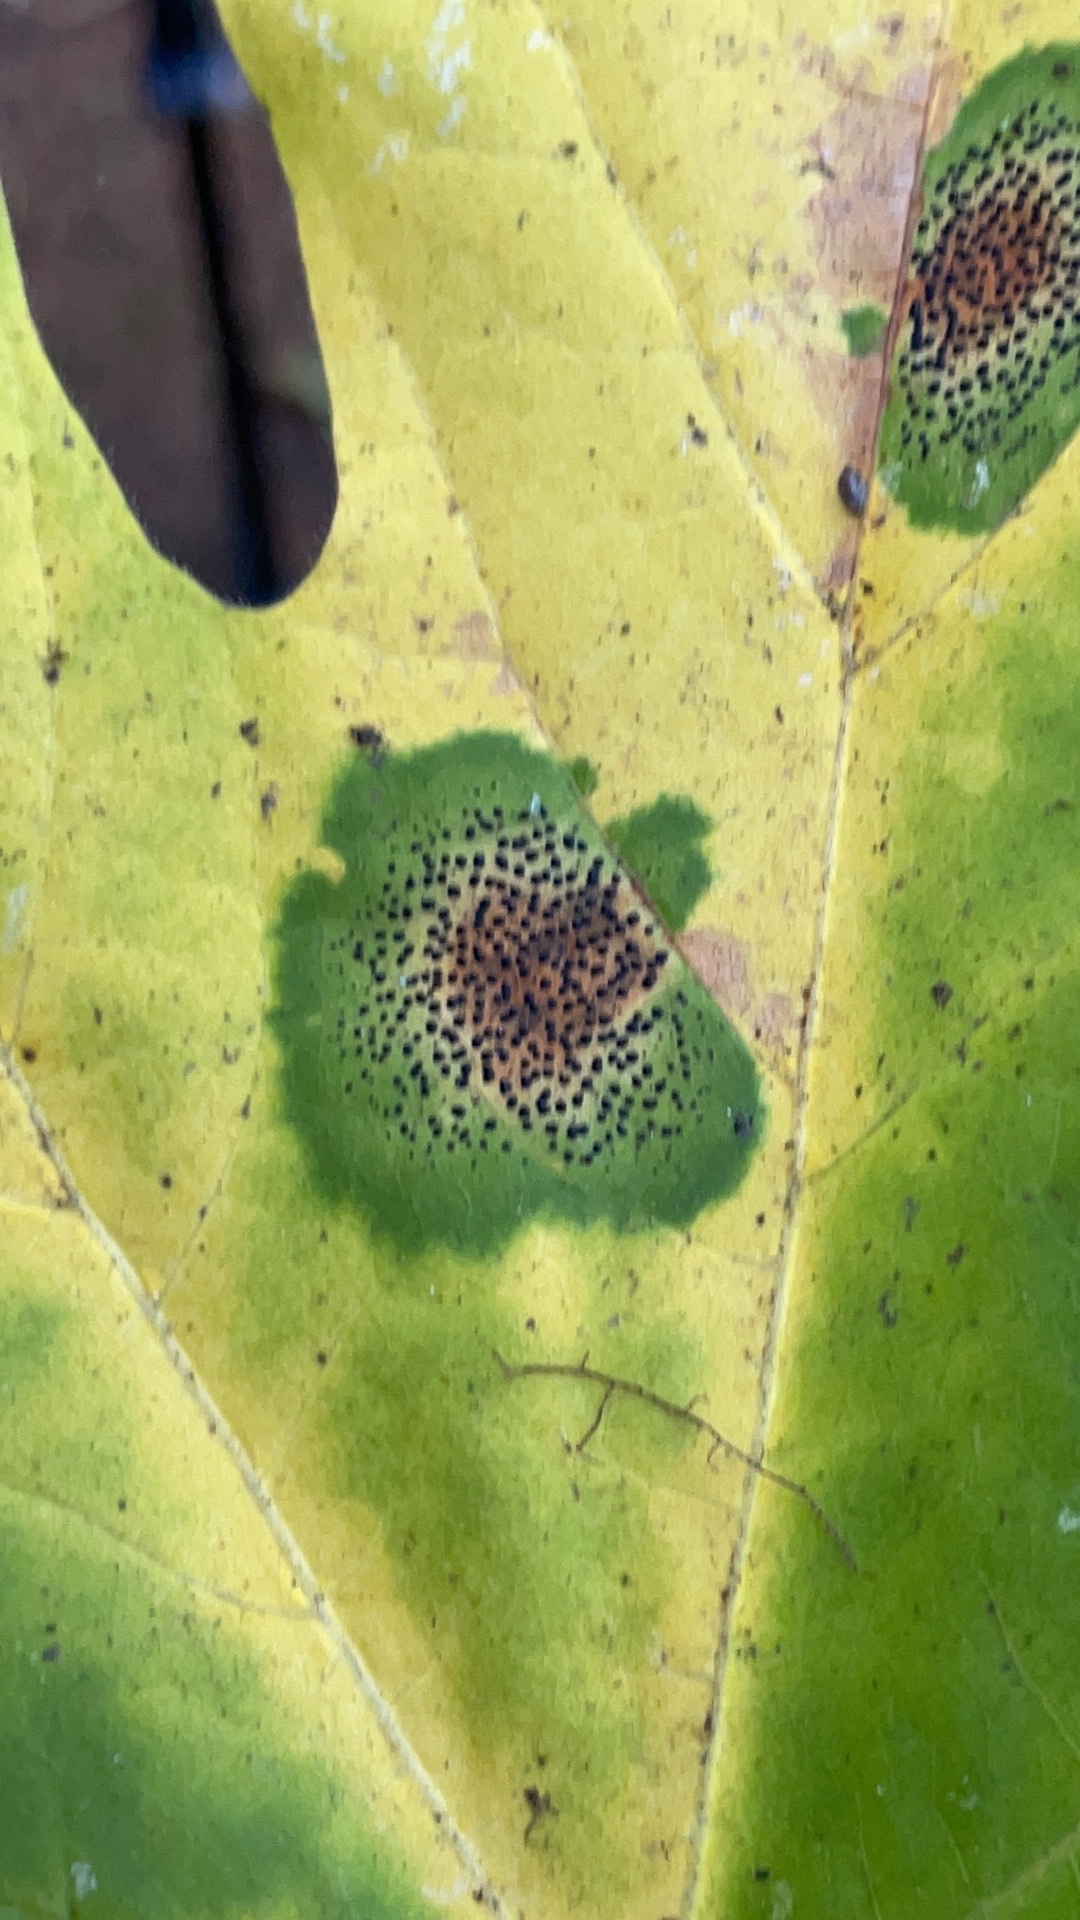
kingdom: Fungi
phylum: Ascomycota
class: Leotiomycetes
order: Rhytismatales
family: Rhytismataceae
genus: Rhytisma
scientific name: Rhytisma punctatum
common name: Speckled tar spot
